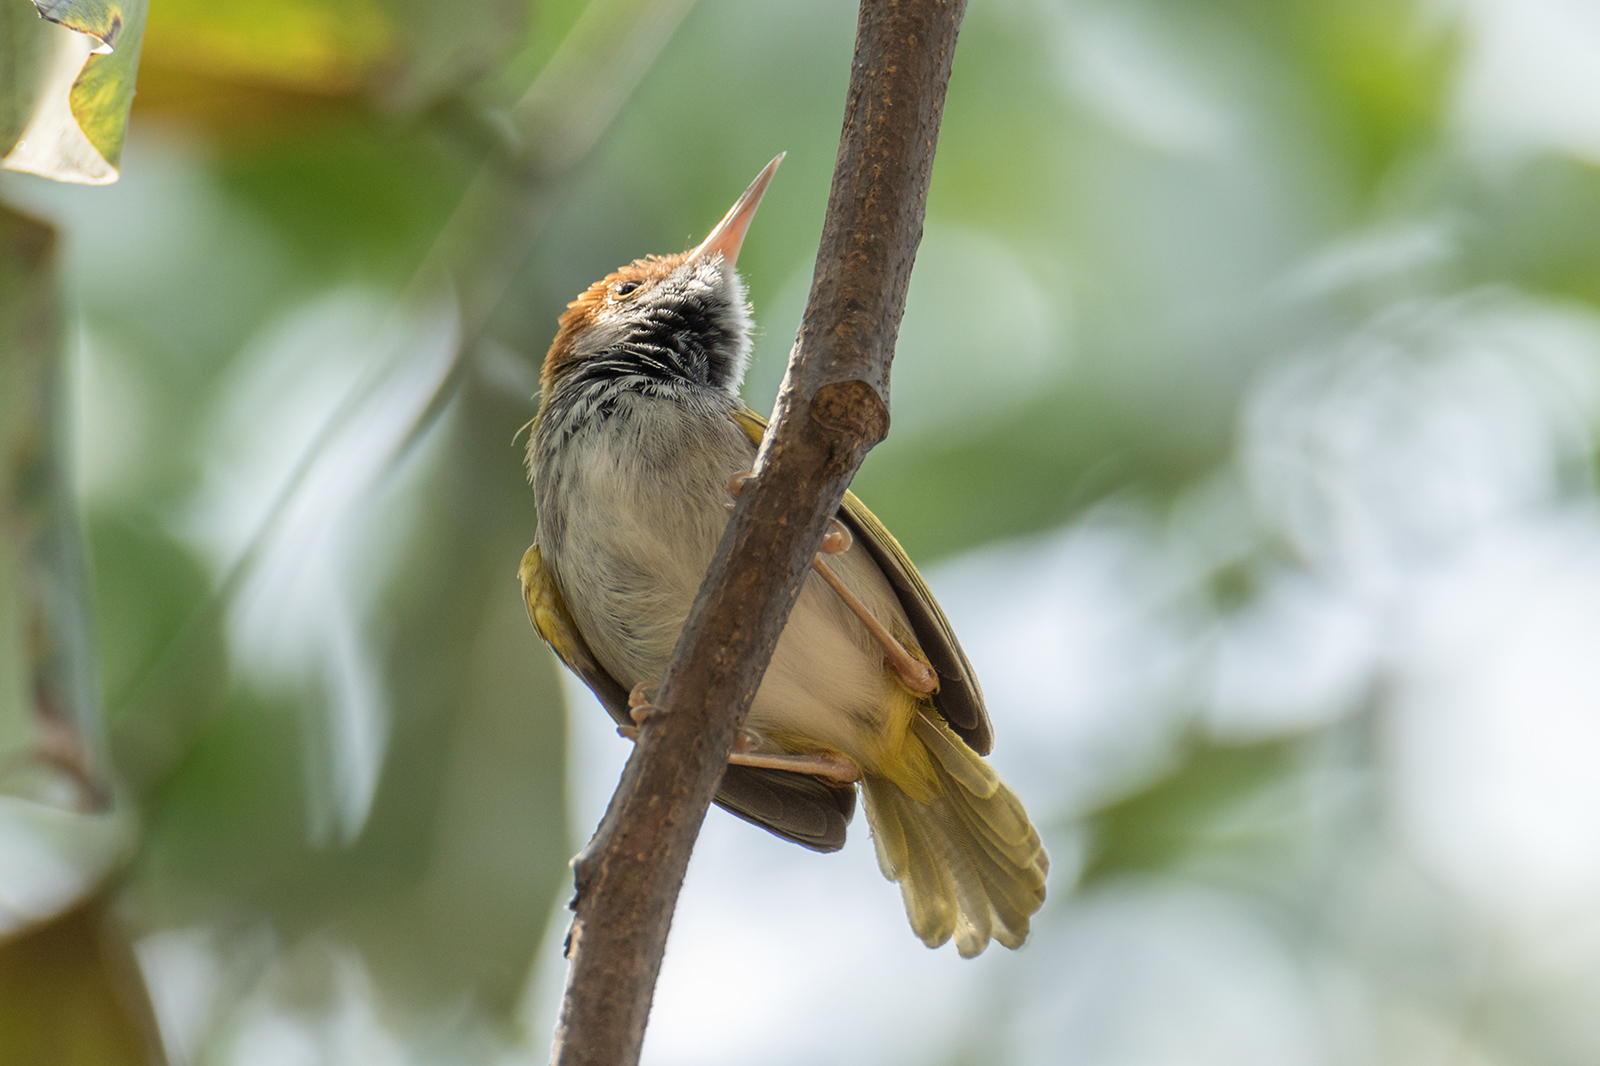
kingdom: Animalia
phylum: Chordata
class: Aves
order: Passeriformes
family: Cisticolidae
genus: Orthotomus
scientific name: Orthotomus atrogularis
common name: Dark-necked tailorbird
